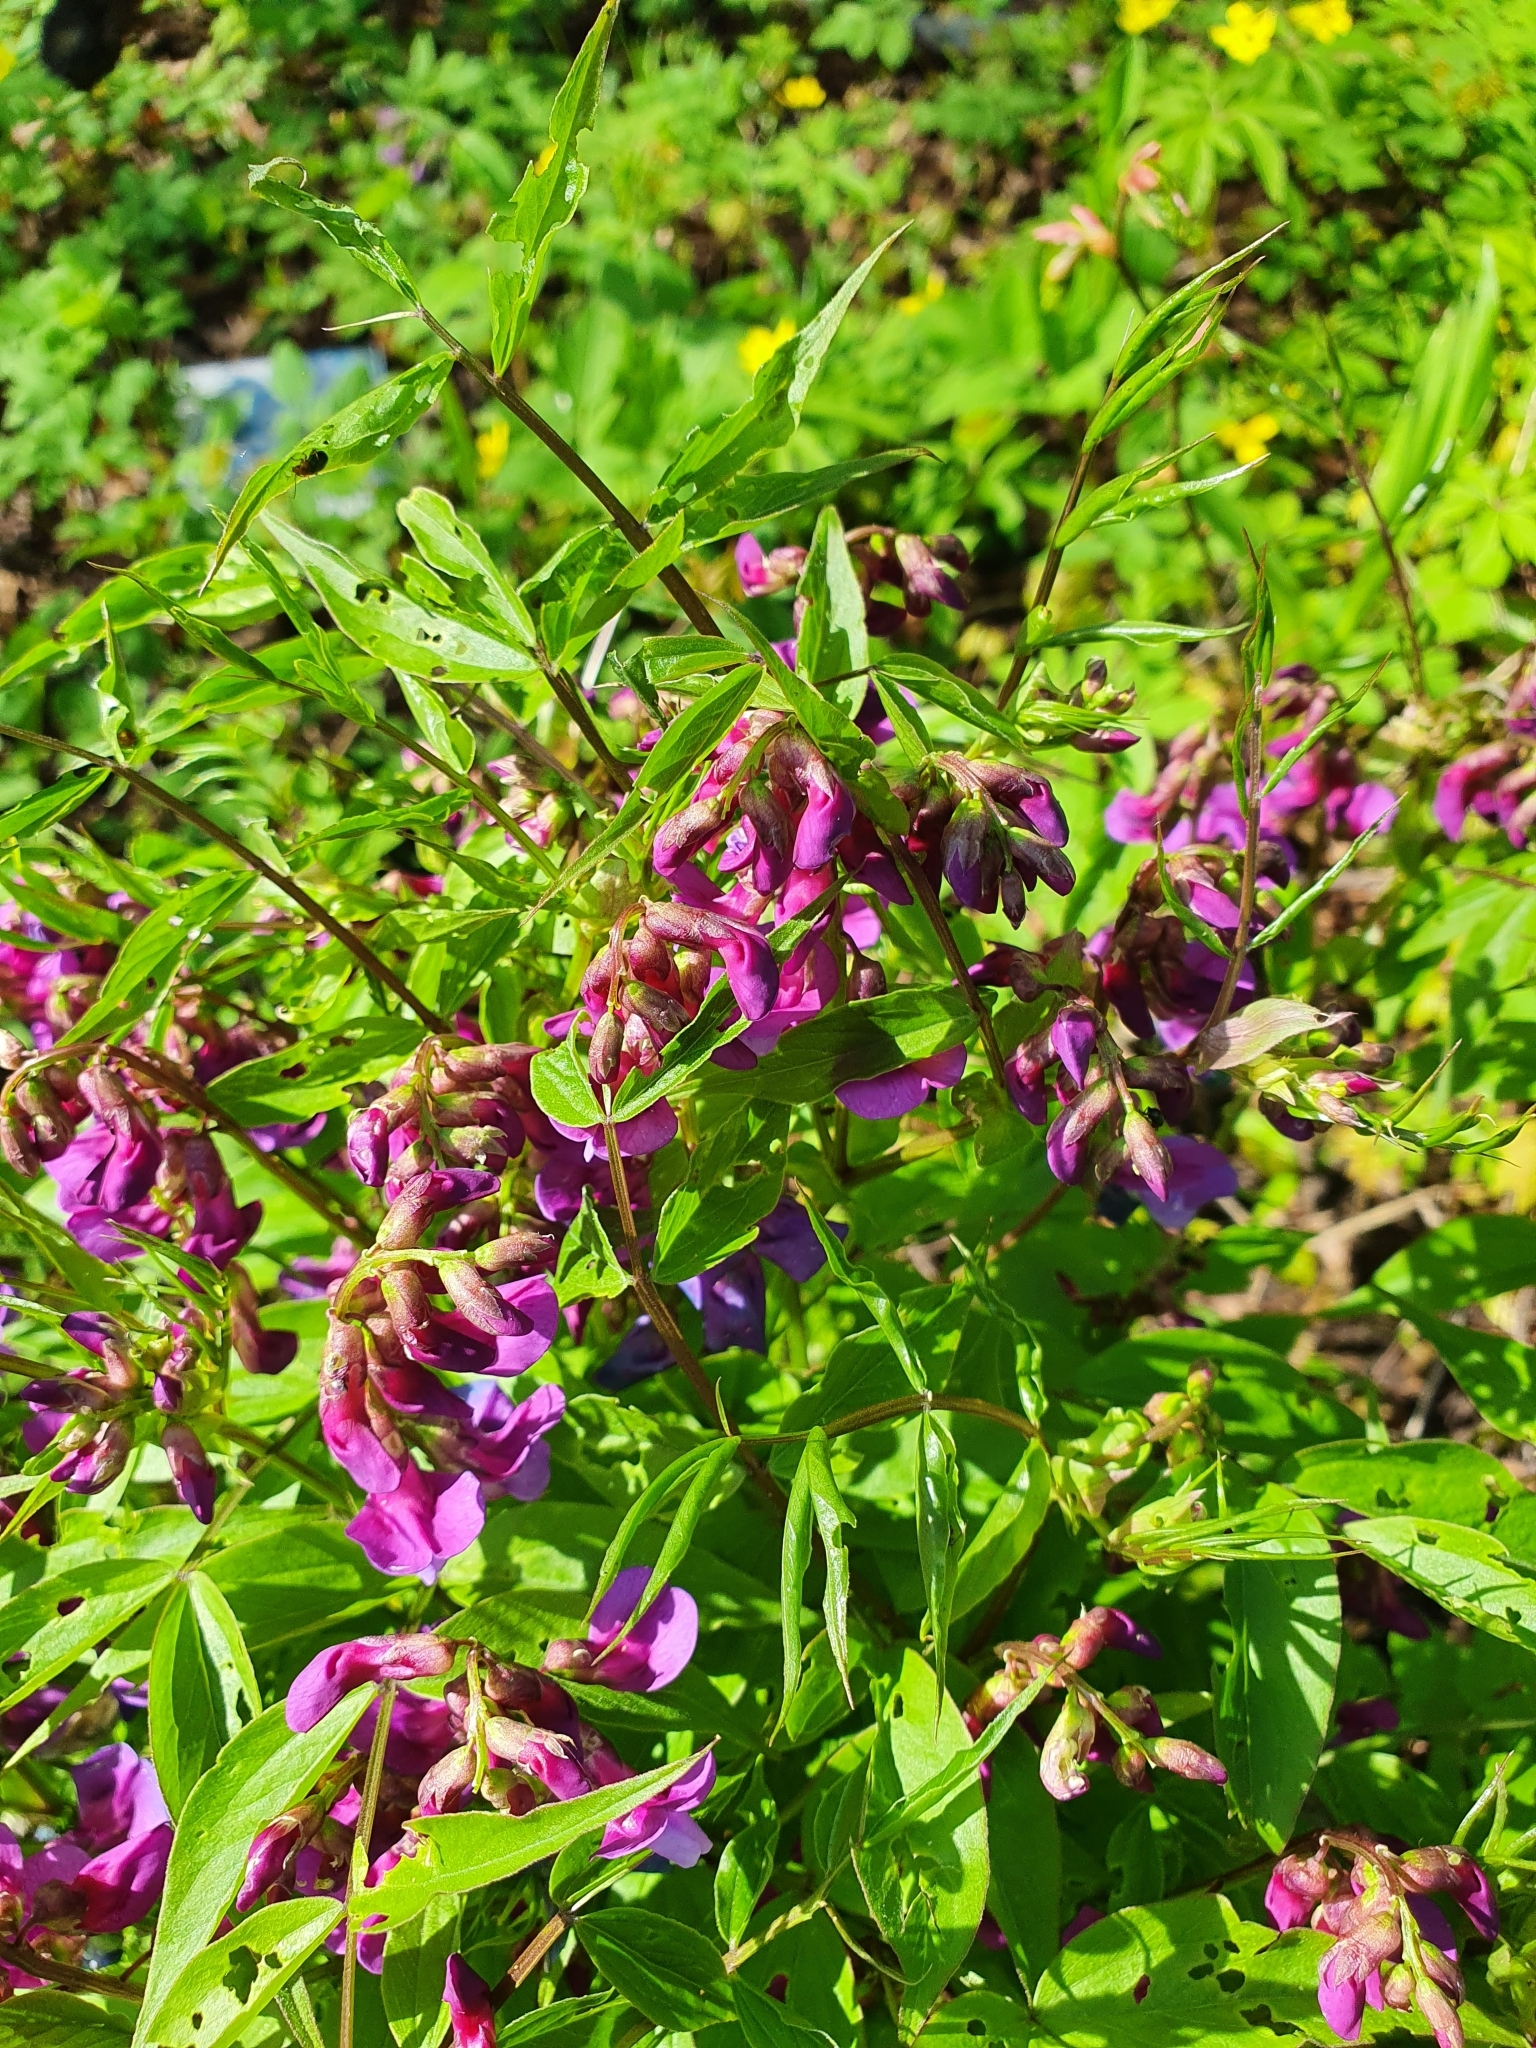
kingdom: Plantae
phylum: Tracheophyta
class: Magnoliopsida
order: Fabales
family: Fabaceae
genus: Lathyrus
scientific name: Lathyrus vernus
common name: Spring pea
